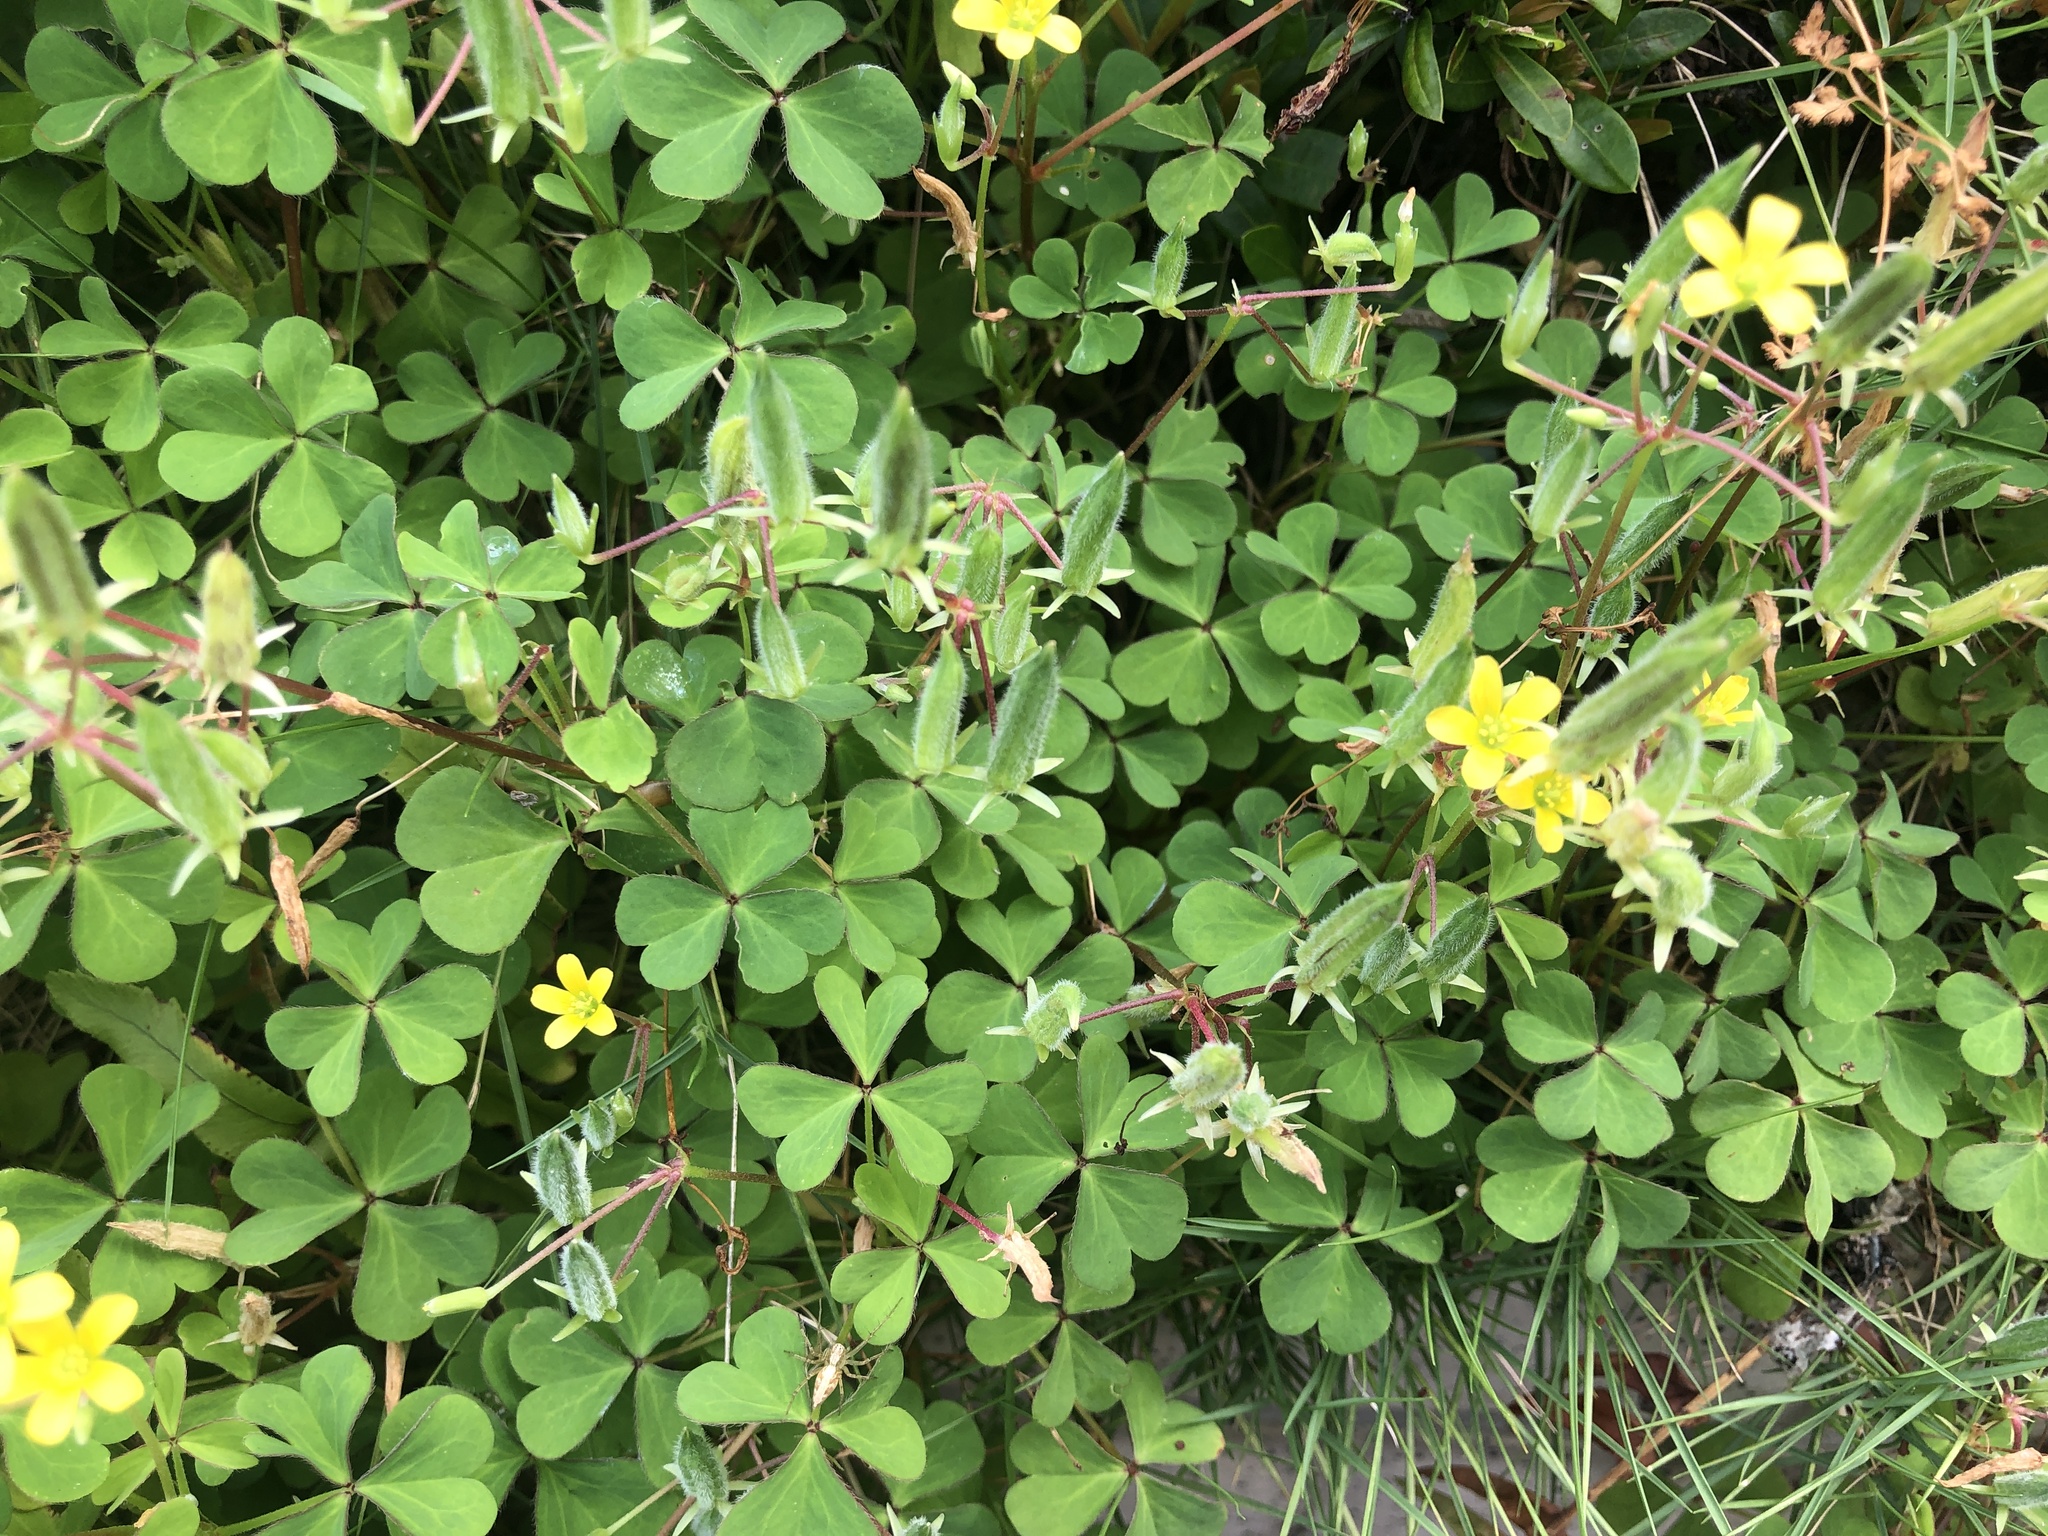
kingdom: Plantae
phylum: Tracheophyta
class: Magnoliopsida
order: Oxalidales
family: Oxalidaceae
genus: Oxalis
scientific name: Oxalis corniculata
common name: Procumbent yellow-sorrel
